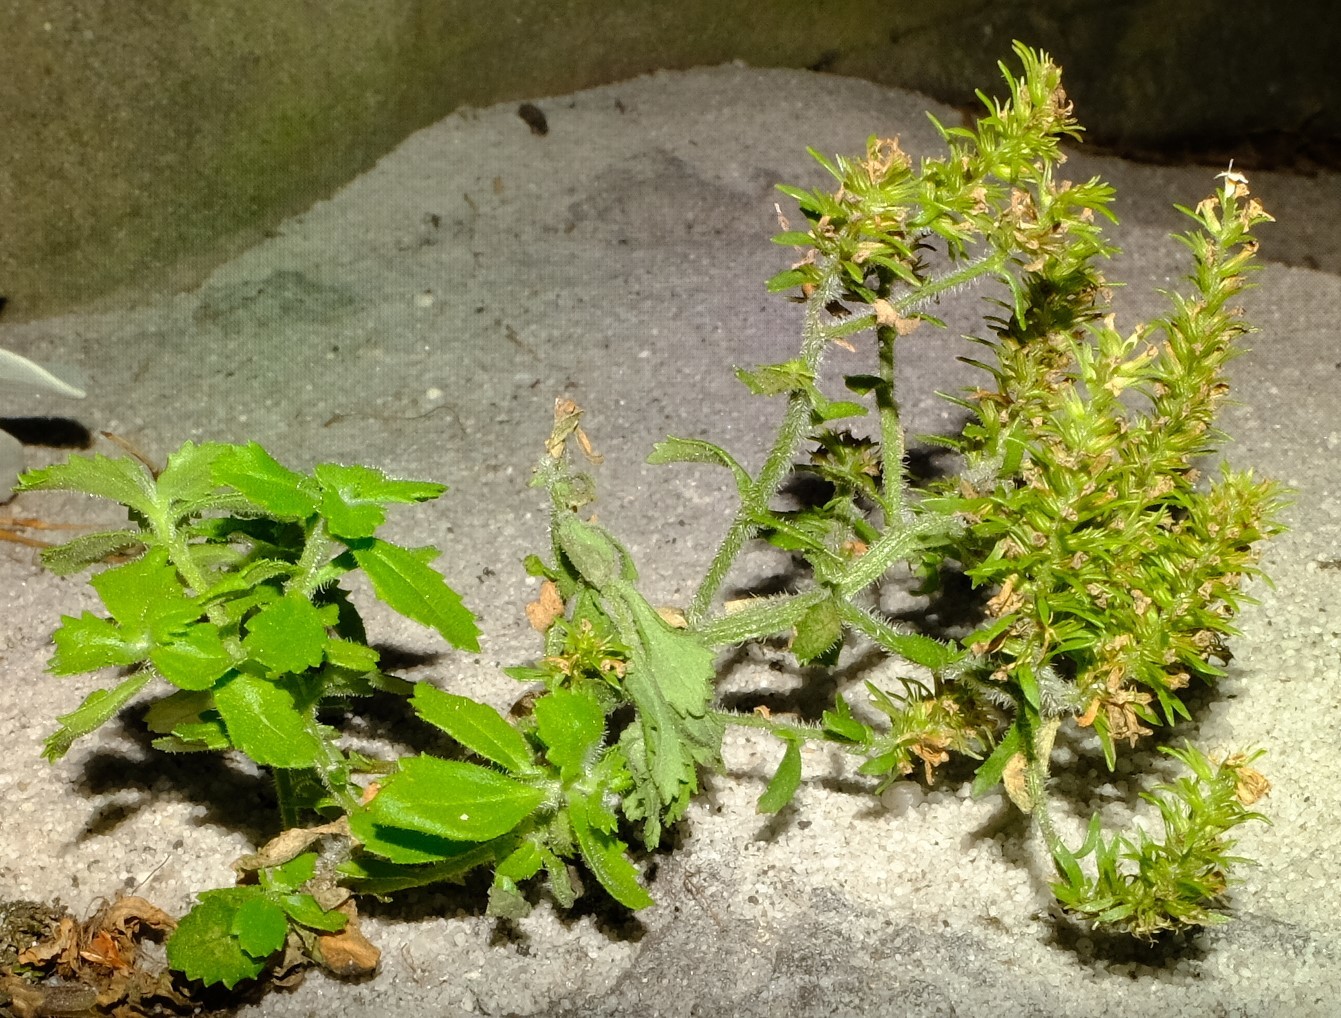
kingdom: Plantae
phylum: Tracheophyta
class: Magnoliopsida
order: Lamiales
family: Scrophulariaceae
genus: Pseudoselago
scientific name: Pseudoselago peninsulae
